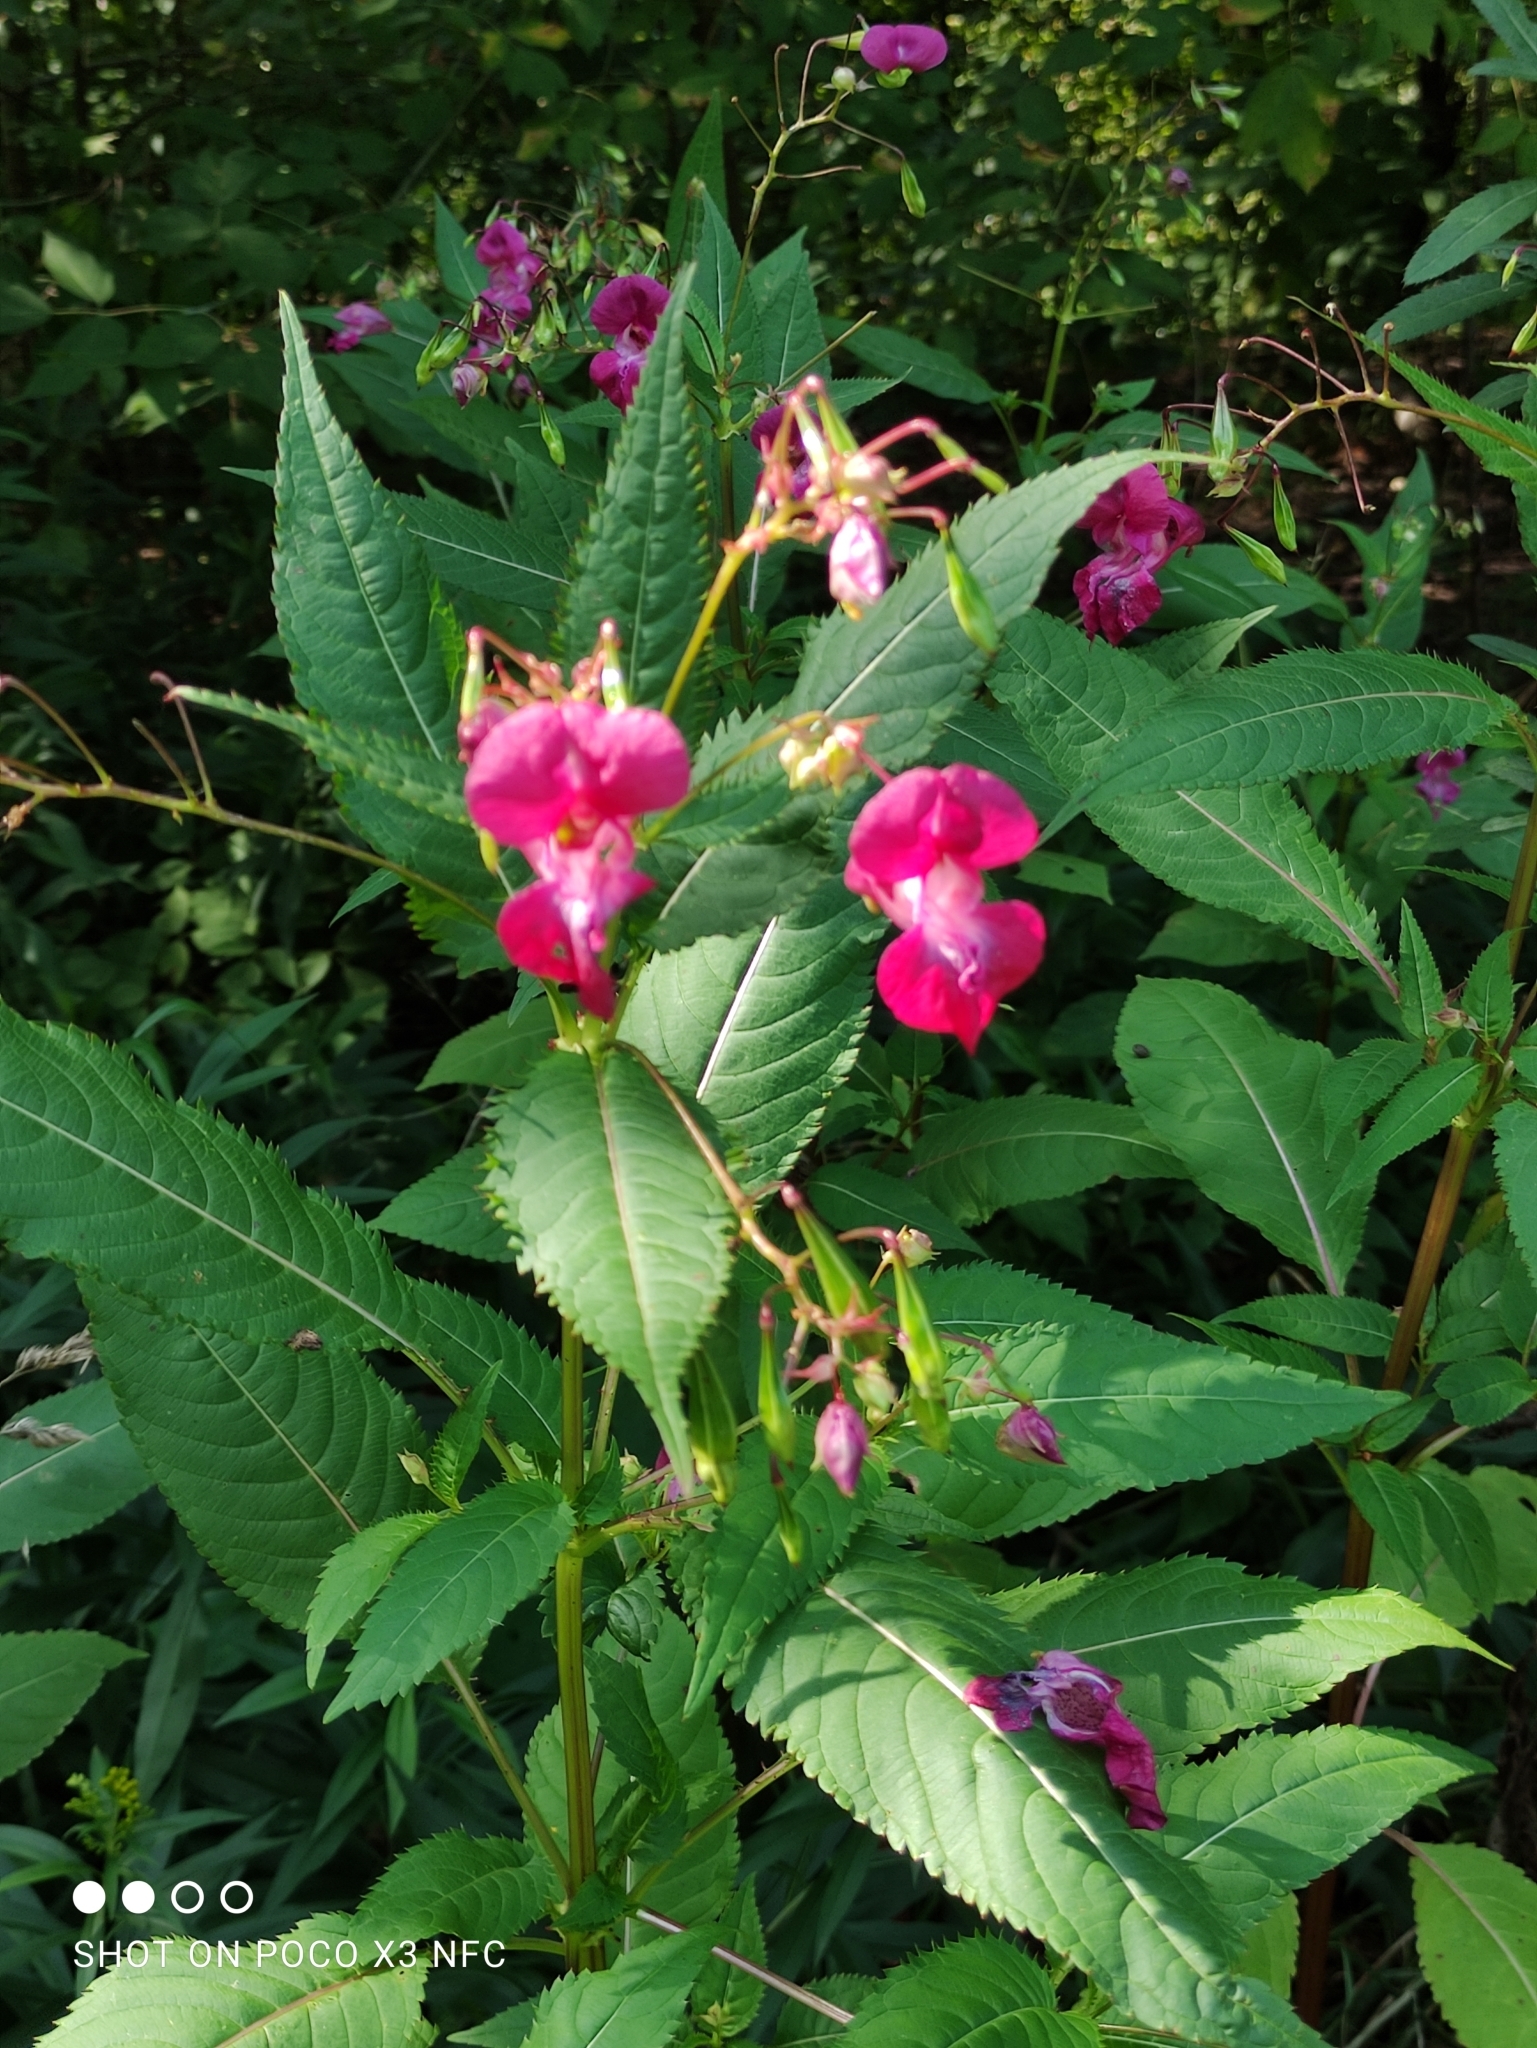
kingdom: Plantae
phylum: Tracheophyta
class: Magnoliopsida
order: Ericales
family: Balsaminaceae
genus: Impatiens
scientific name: Impatiens glandulifera
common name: Himalayan balsam
